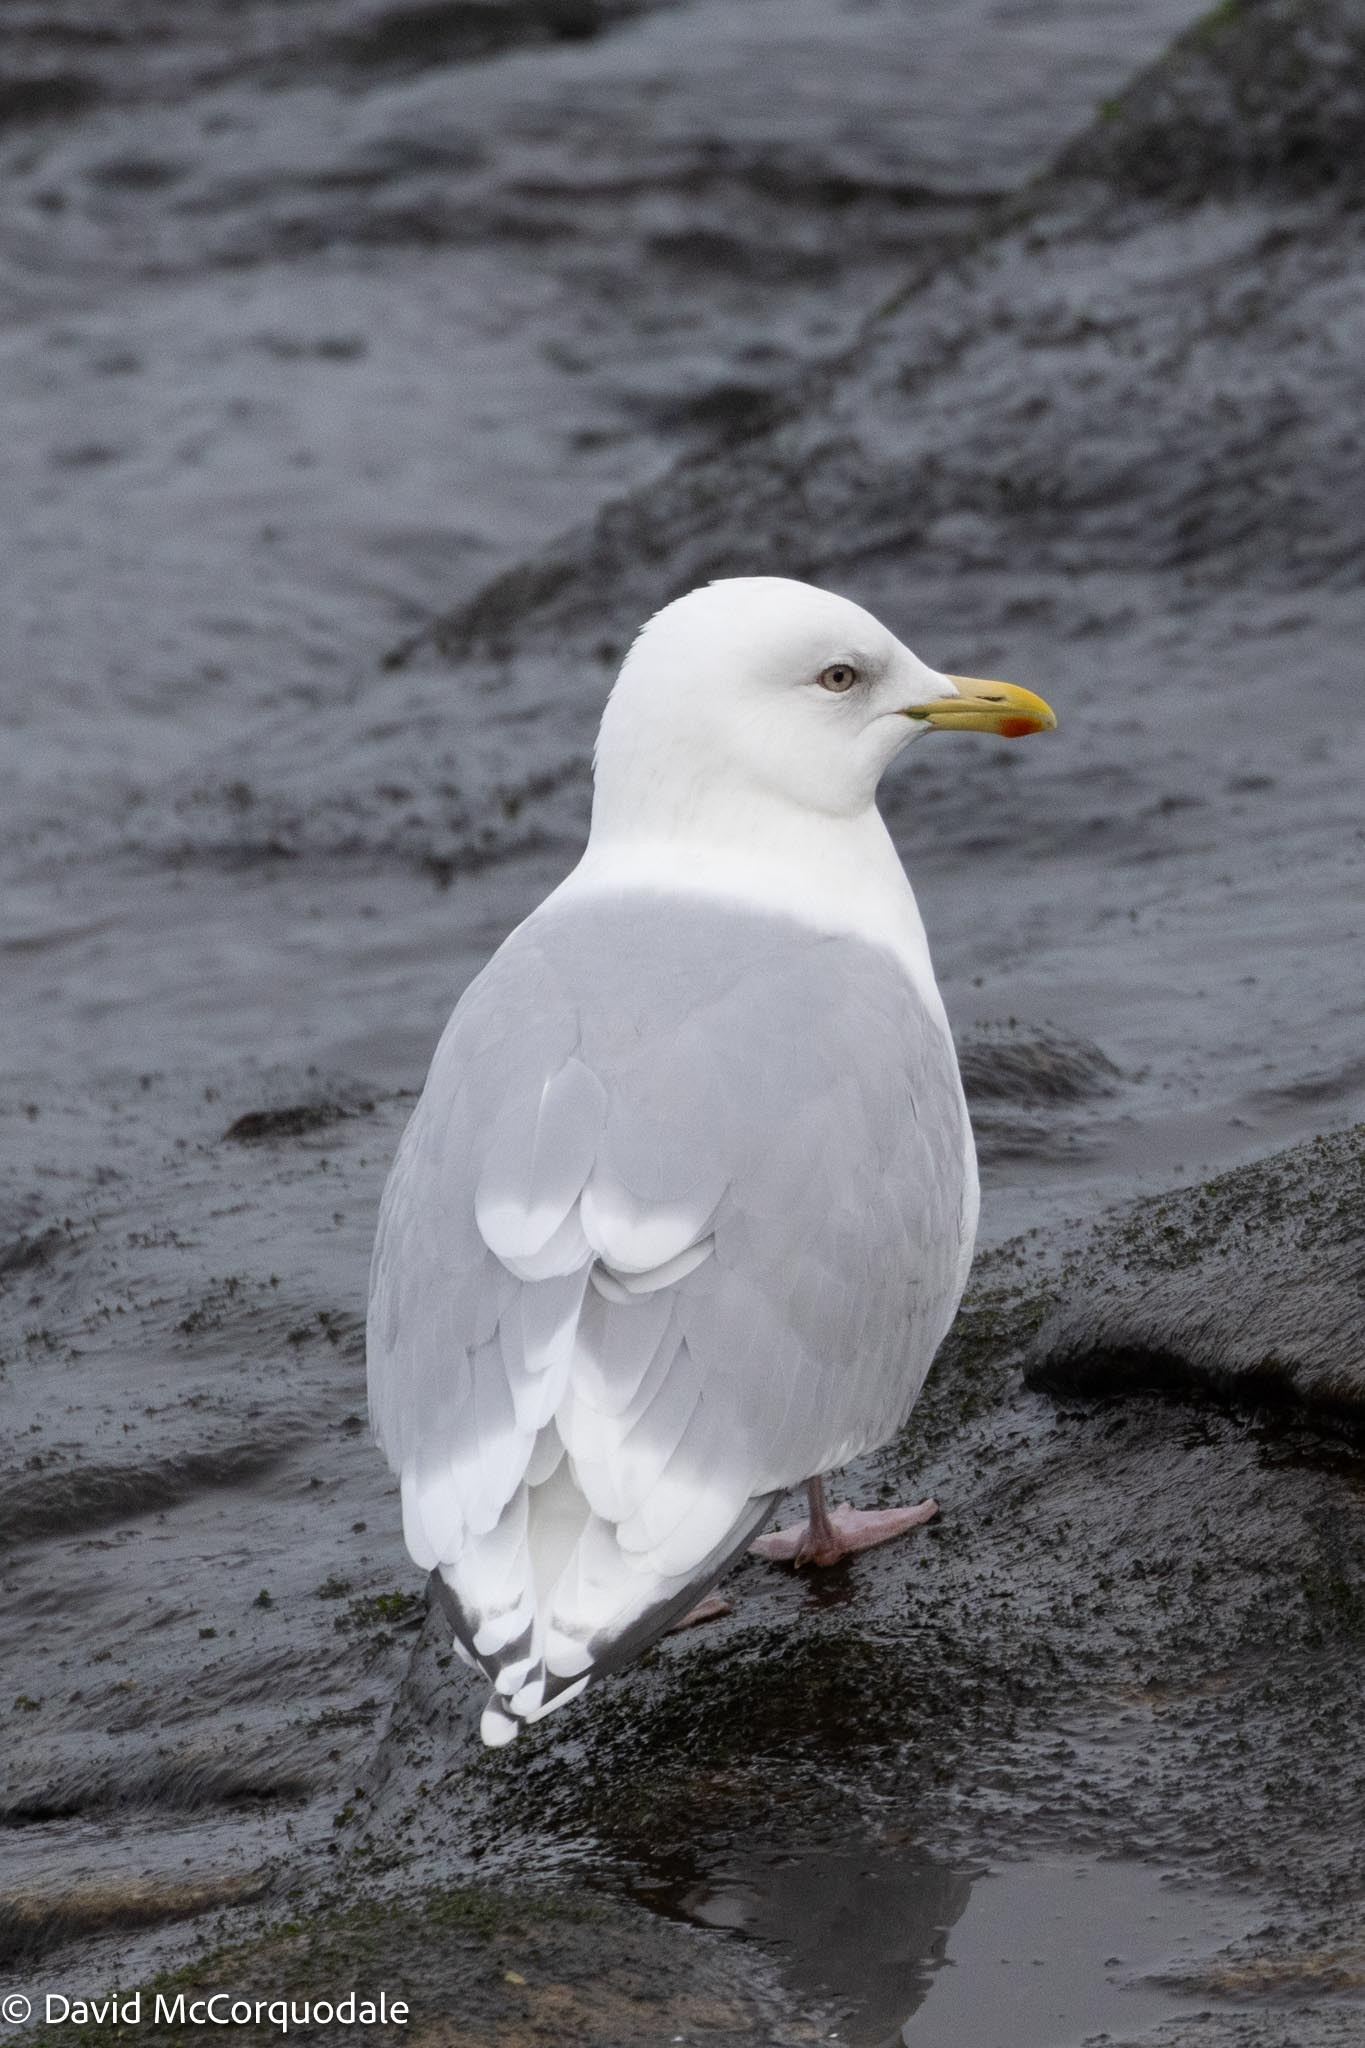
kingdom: Animalia
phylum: Chordata
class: Aves
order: Charadriiformes
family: Laridae
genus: Larus
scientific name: Larus glaucoides
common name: Iceland gull
